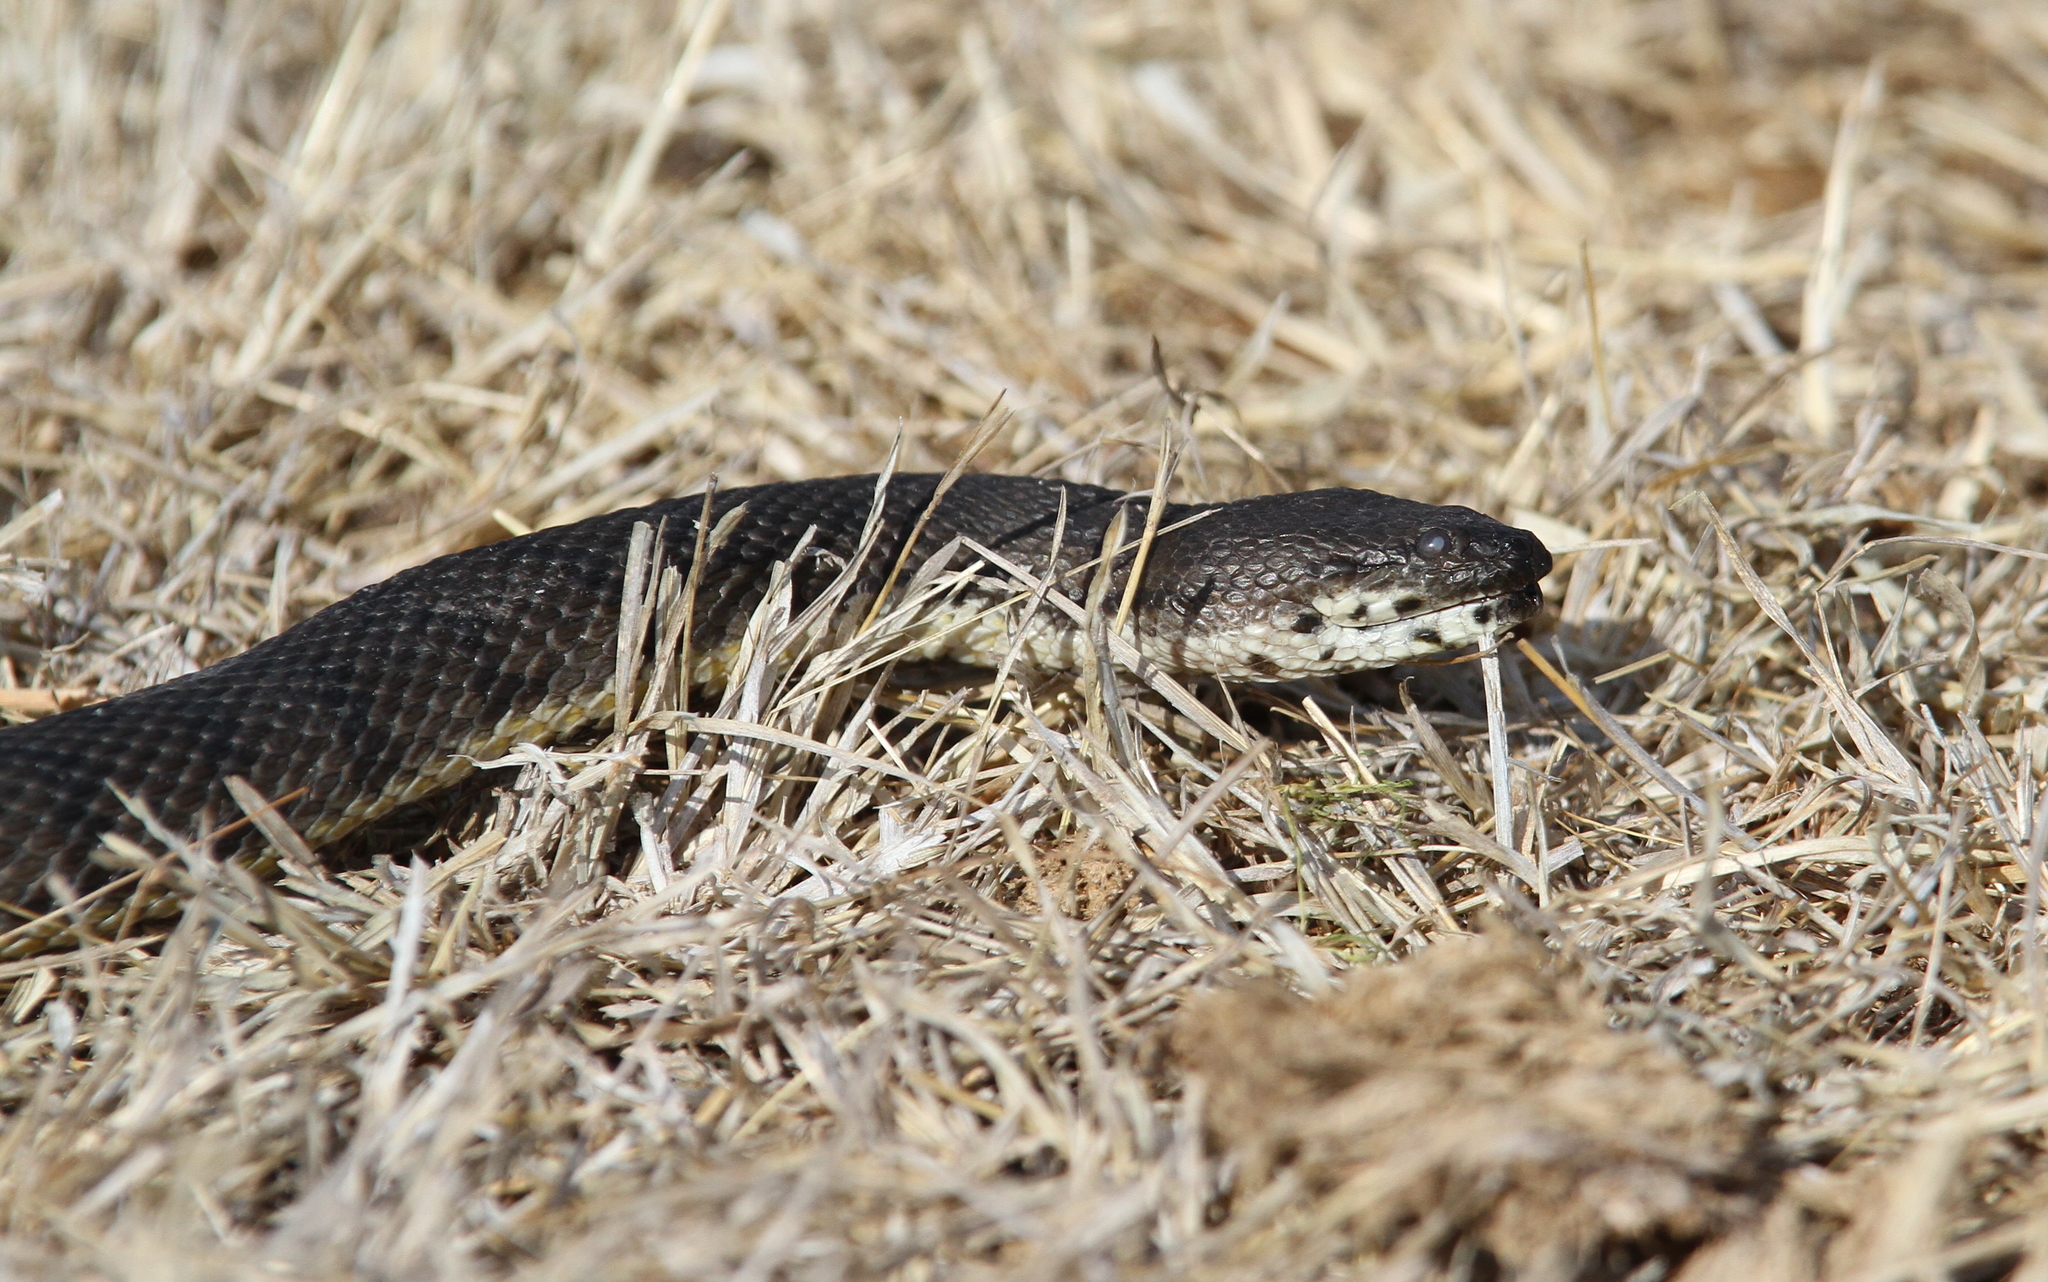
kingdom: Animalia
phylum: Chordata
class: Squamata
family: Homalopsidae
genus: Cerberus
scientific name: Cerberus schneiderii
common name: Southeast asian bockadam
